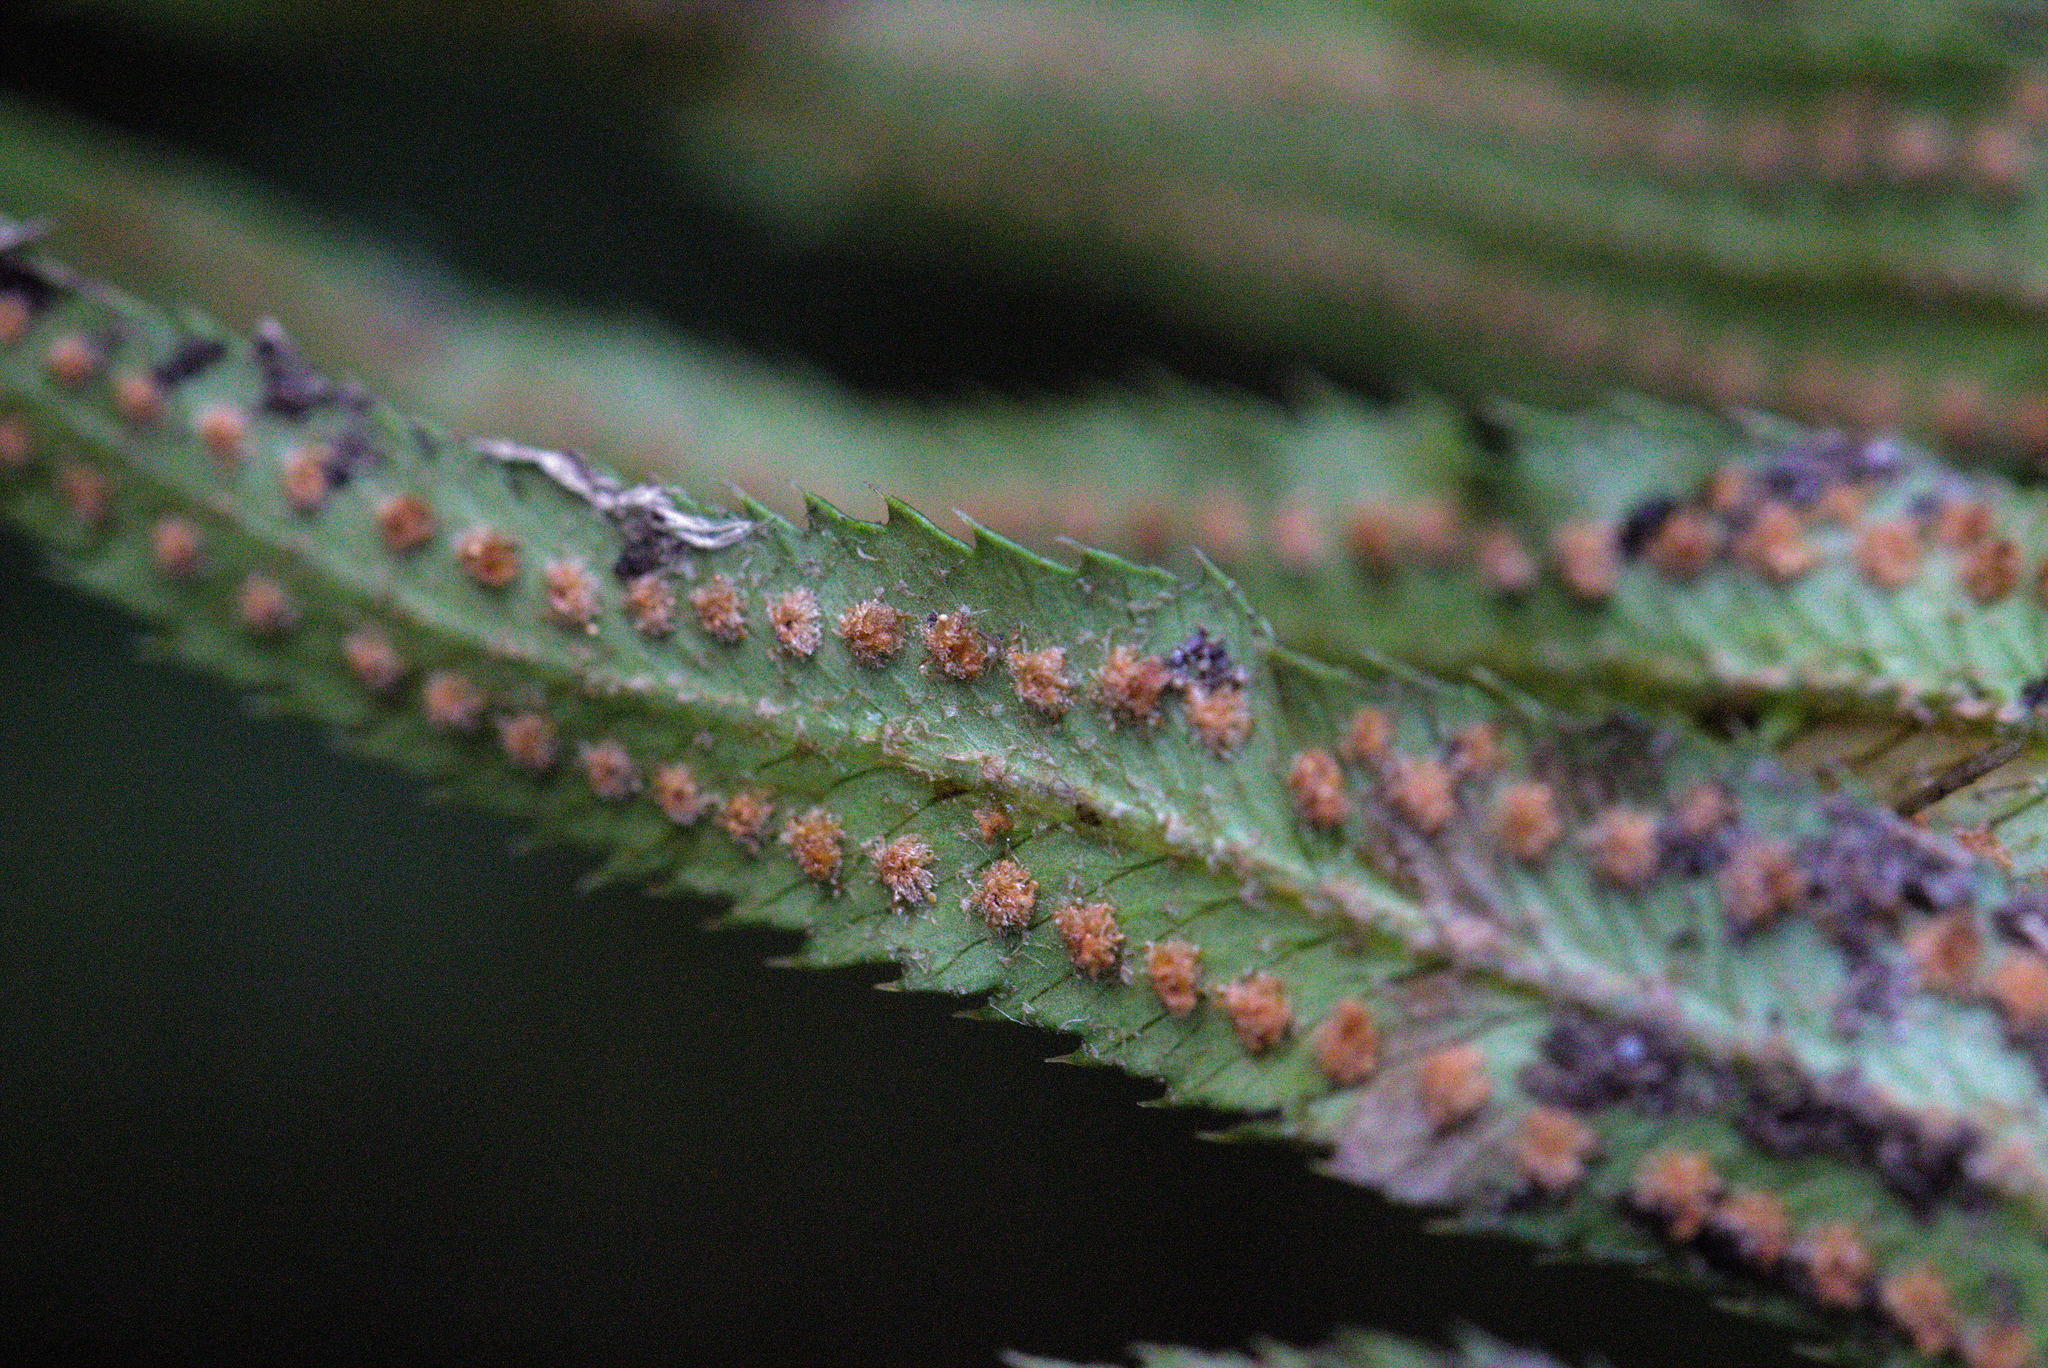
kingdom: Plantae
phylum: Tracheophyta
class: Polypodiopsida
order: Polypodiales
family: Dryopteridaceae
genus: Polystichum
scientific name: Polystichum munitum
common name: Western sword-fern
